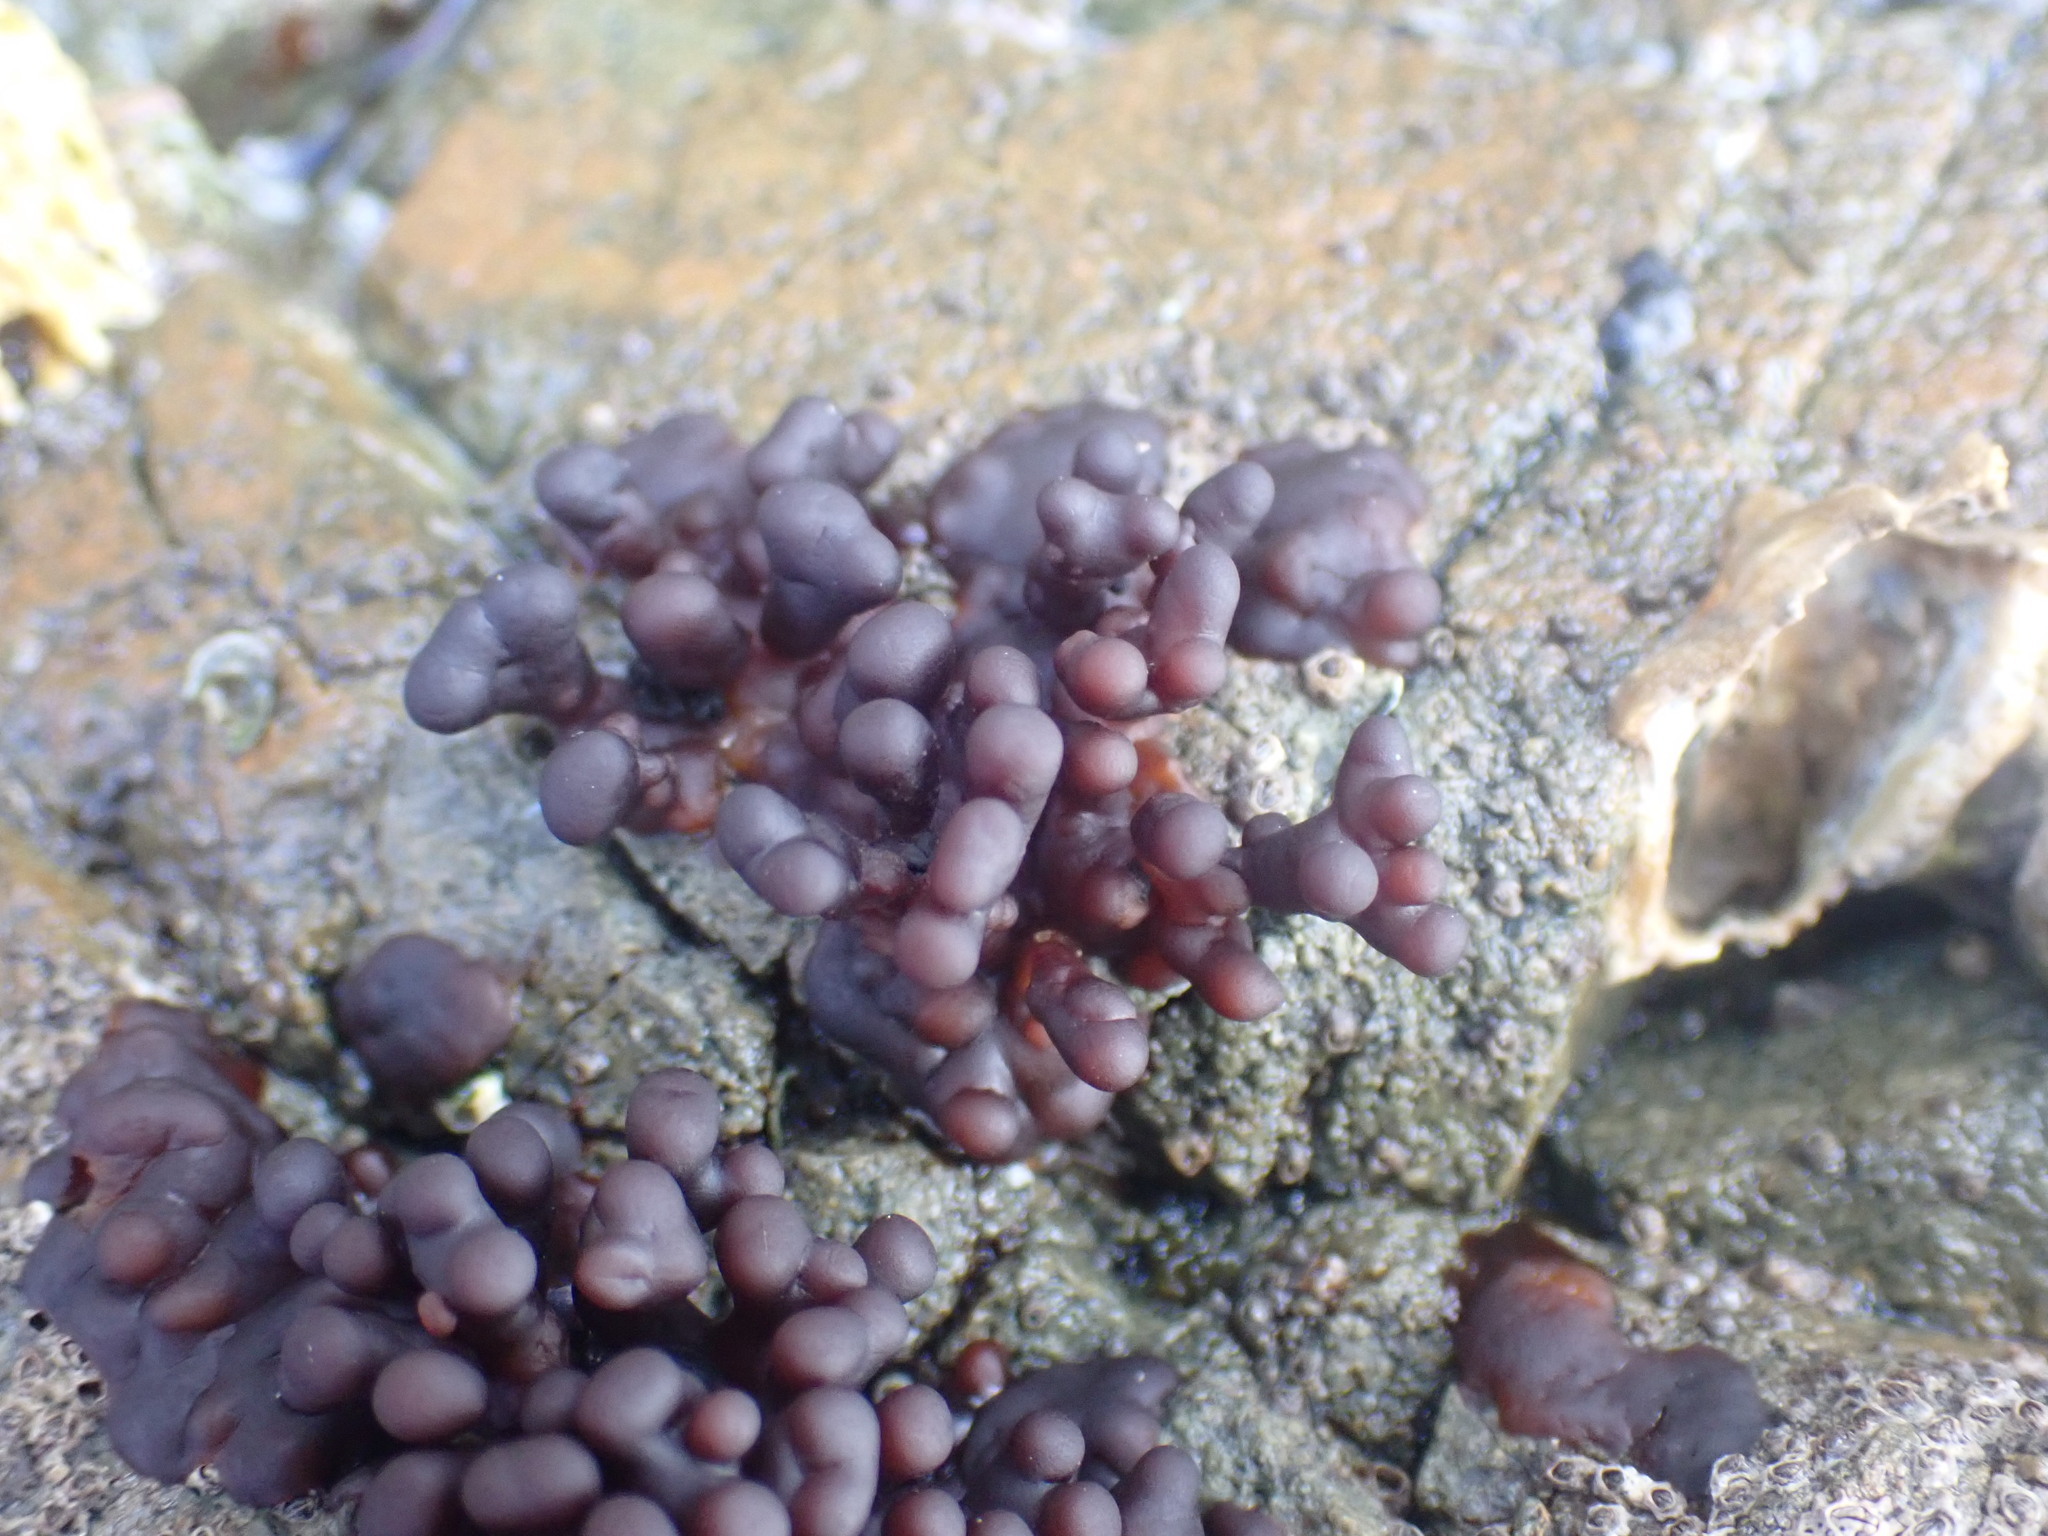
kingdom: Plantae
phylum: Rhodophyta
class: Florideophyceae
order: Hildenbrandiales
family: Hildenbrandiaceae
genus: Apophlaea
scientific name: Apophlaea sinclairii
